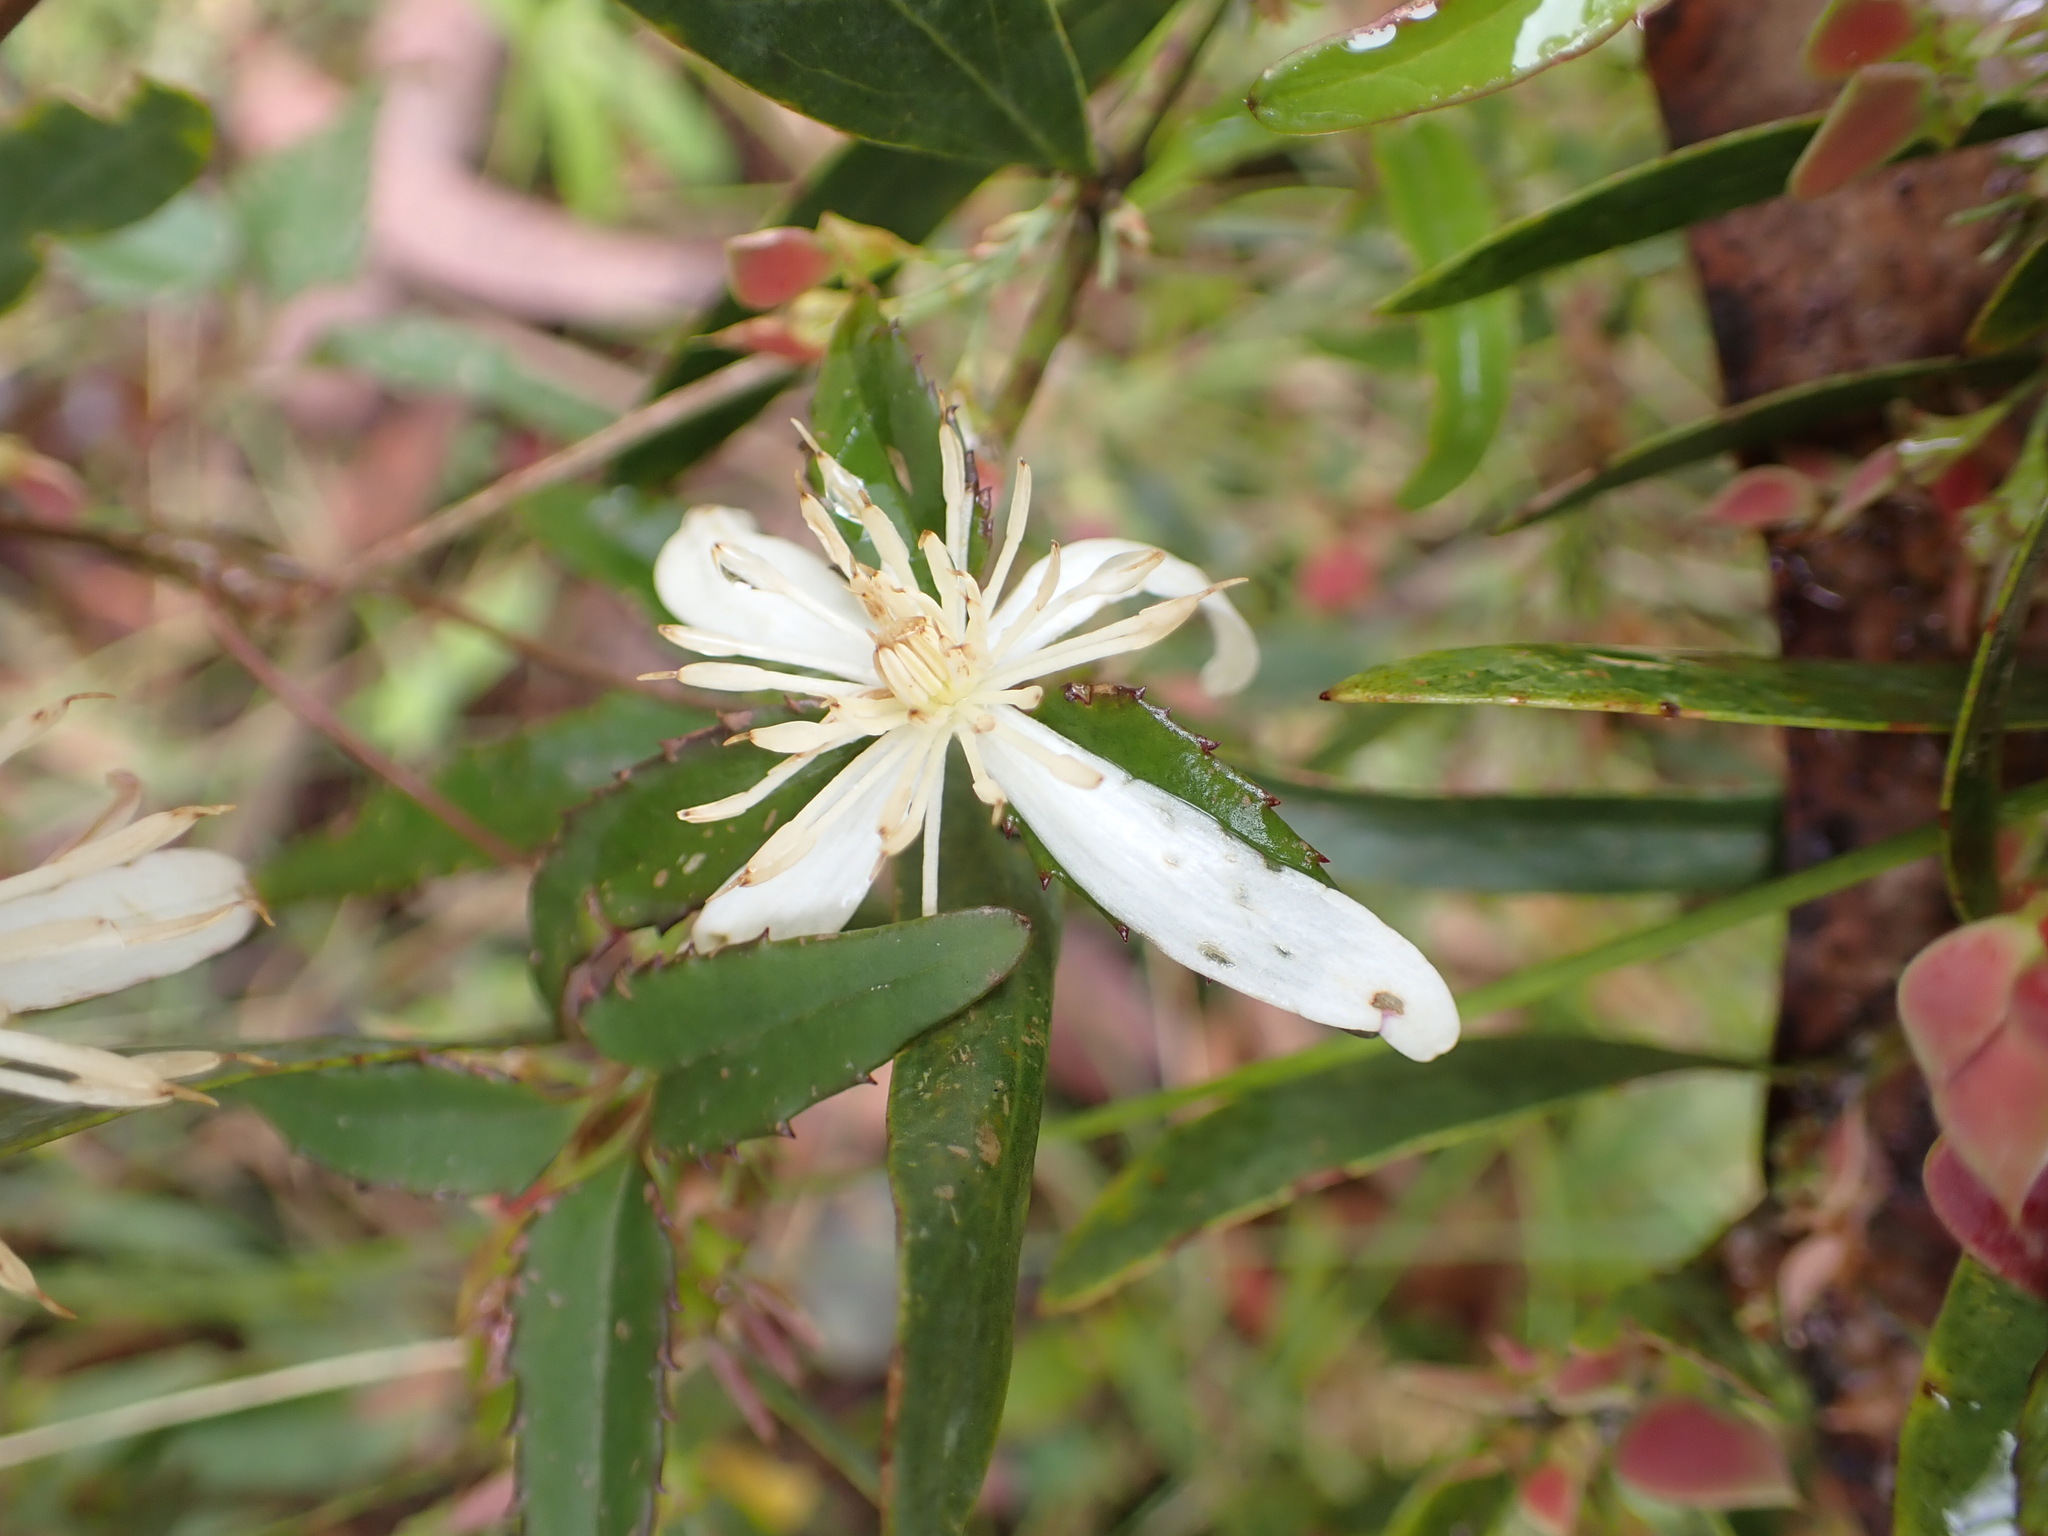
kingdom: Plantae
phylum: Tracheophyta
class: Magnoliopsida
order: Ranunculales
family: Ranunculaceae
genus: Clematis
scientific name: Clematis aristata
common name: Mountain clematis
